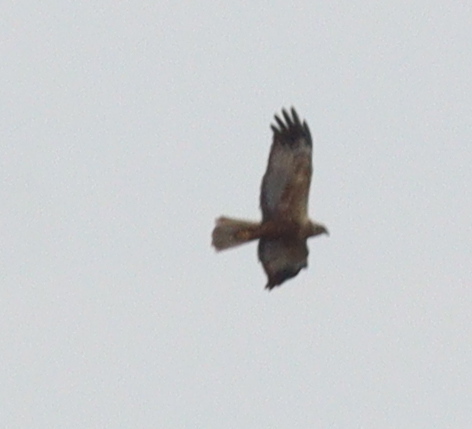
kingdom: Animalia
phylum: Chordata
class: Aves
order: Accipitriformes
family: Accipitridae
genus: Circus
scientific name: Circus aeruginosus
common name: Western marsh harrier
